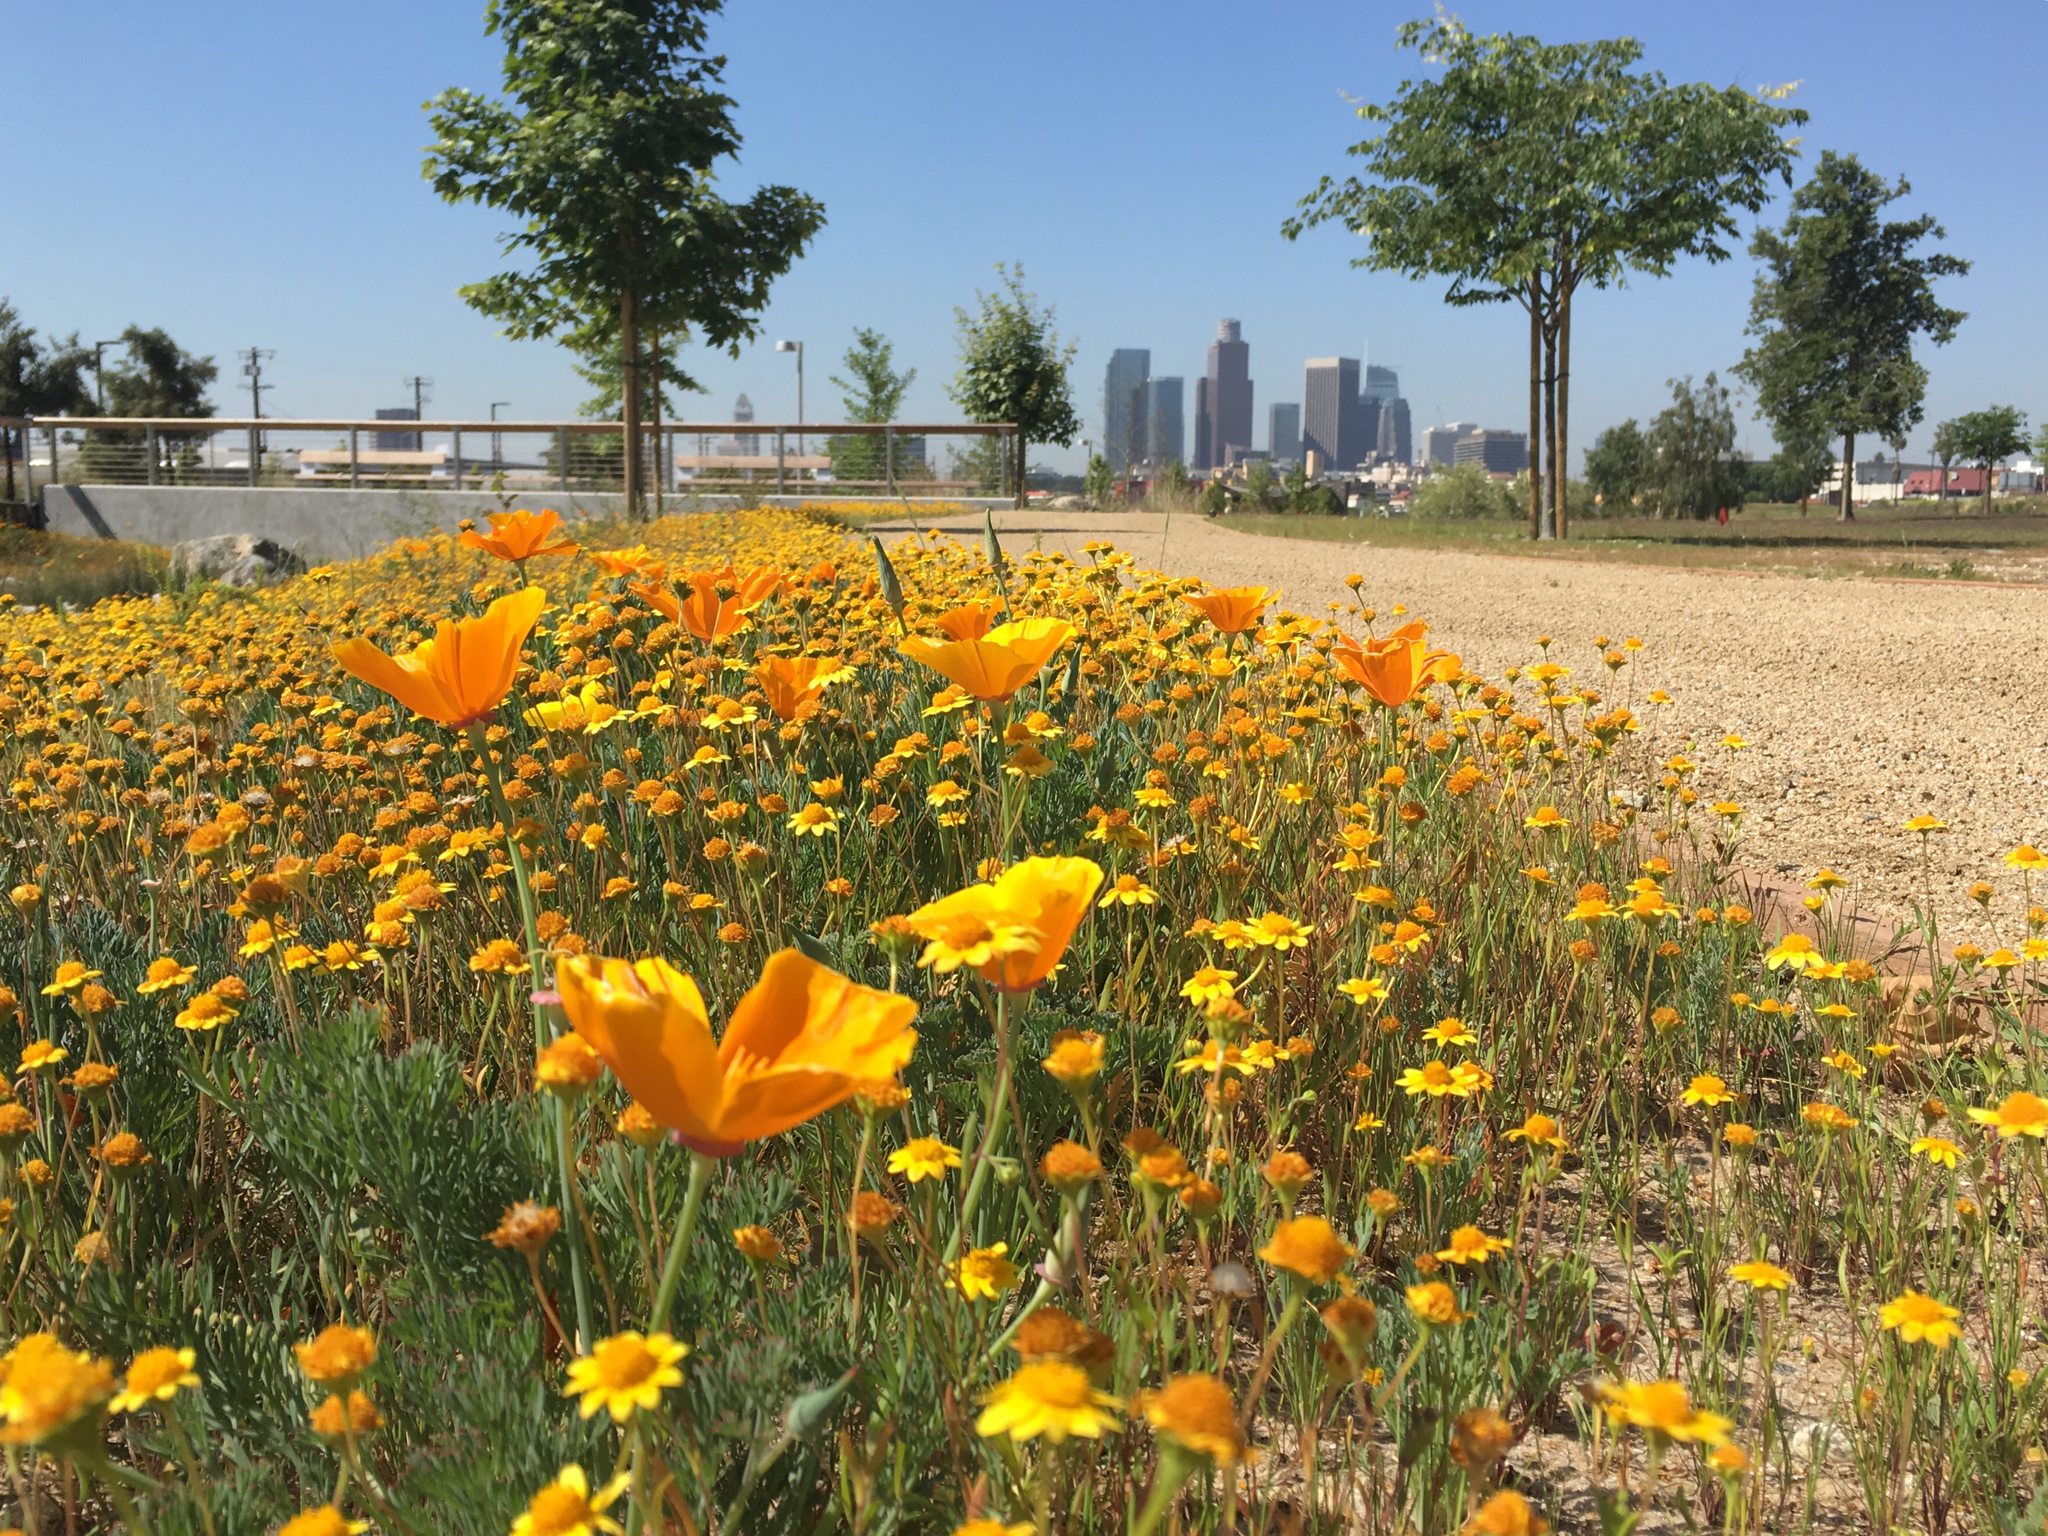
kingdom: Plantae
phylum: Tracheophyta
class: Magnoliopsida
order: Ranunculales
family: Papaveraceae
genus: Eschscholzia
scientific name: Eschscholzia californica
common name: California poppy
